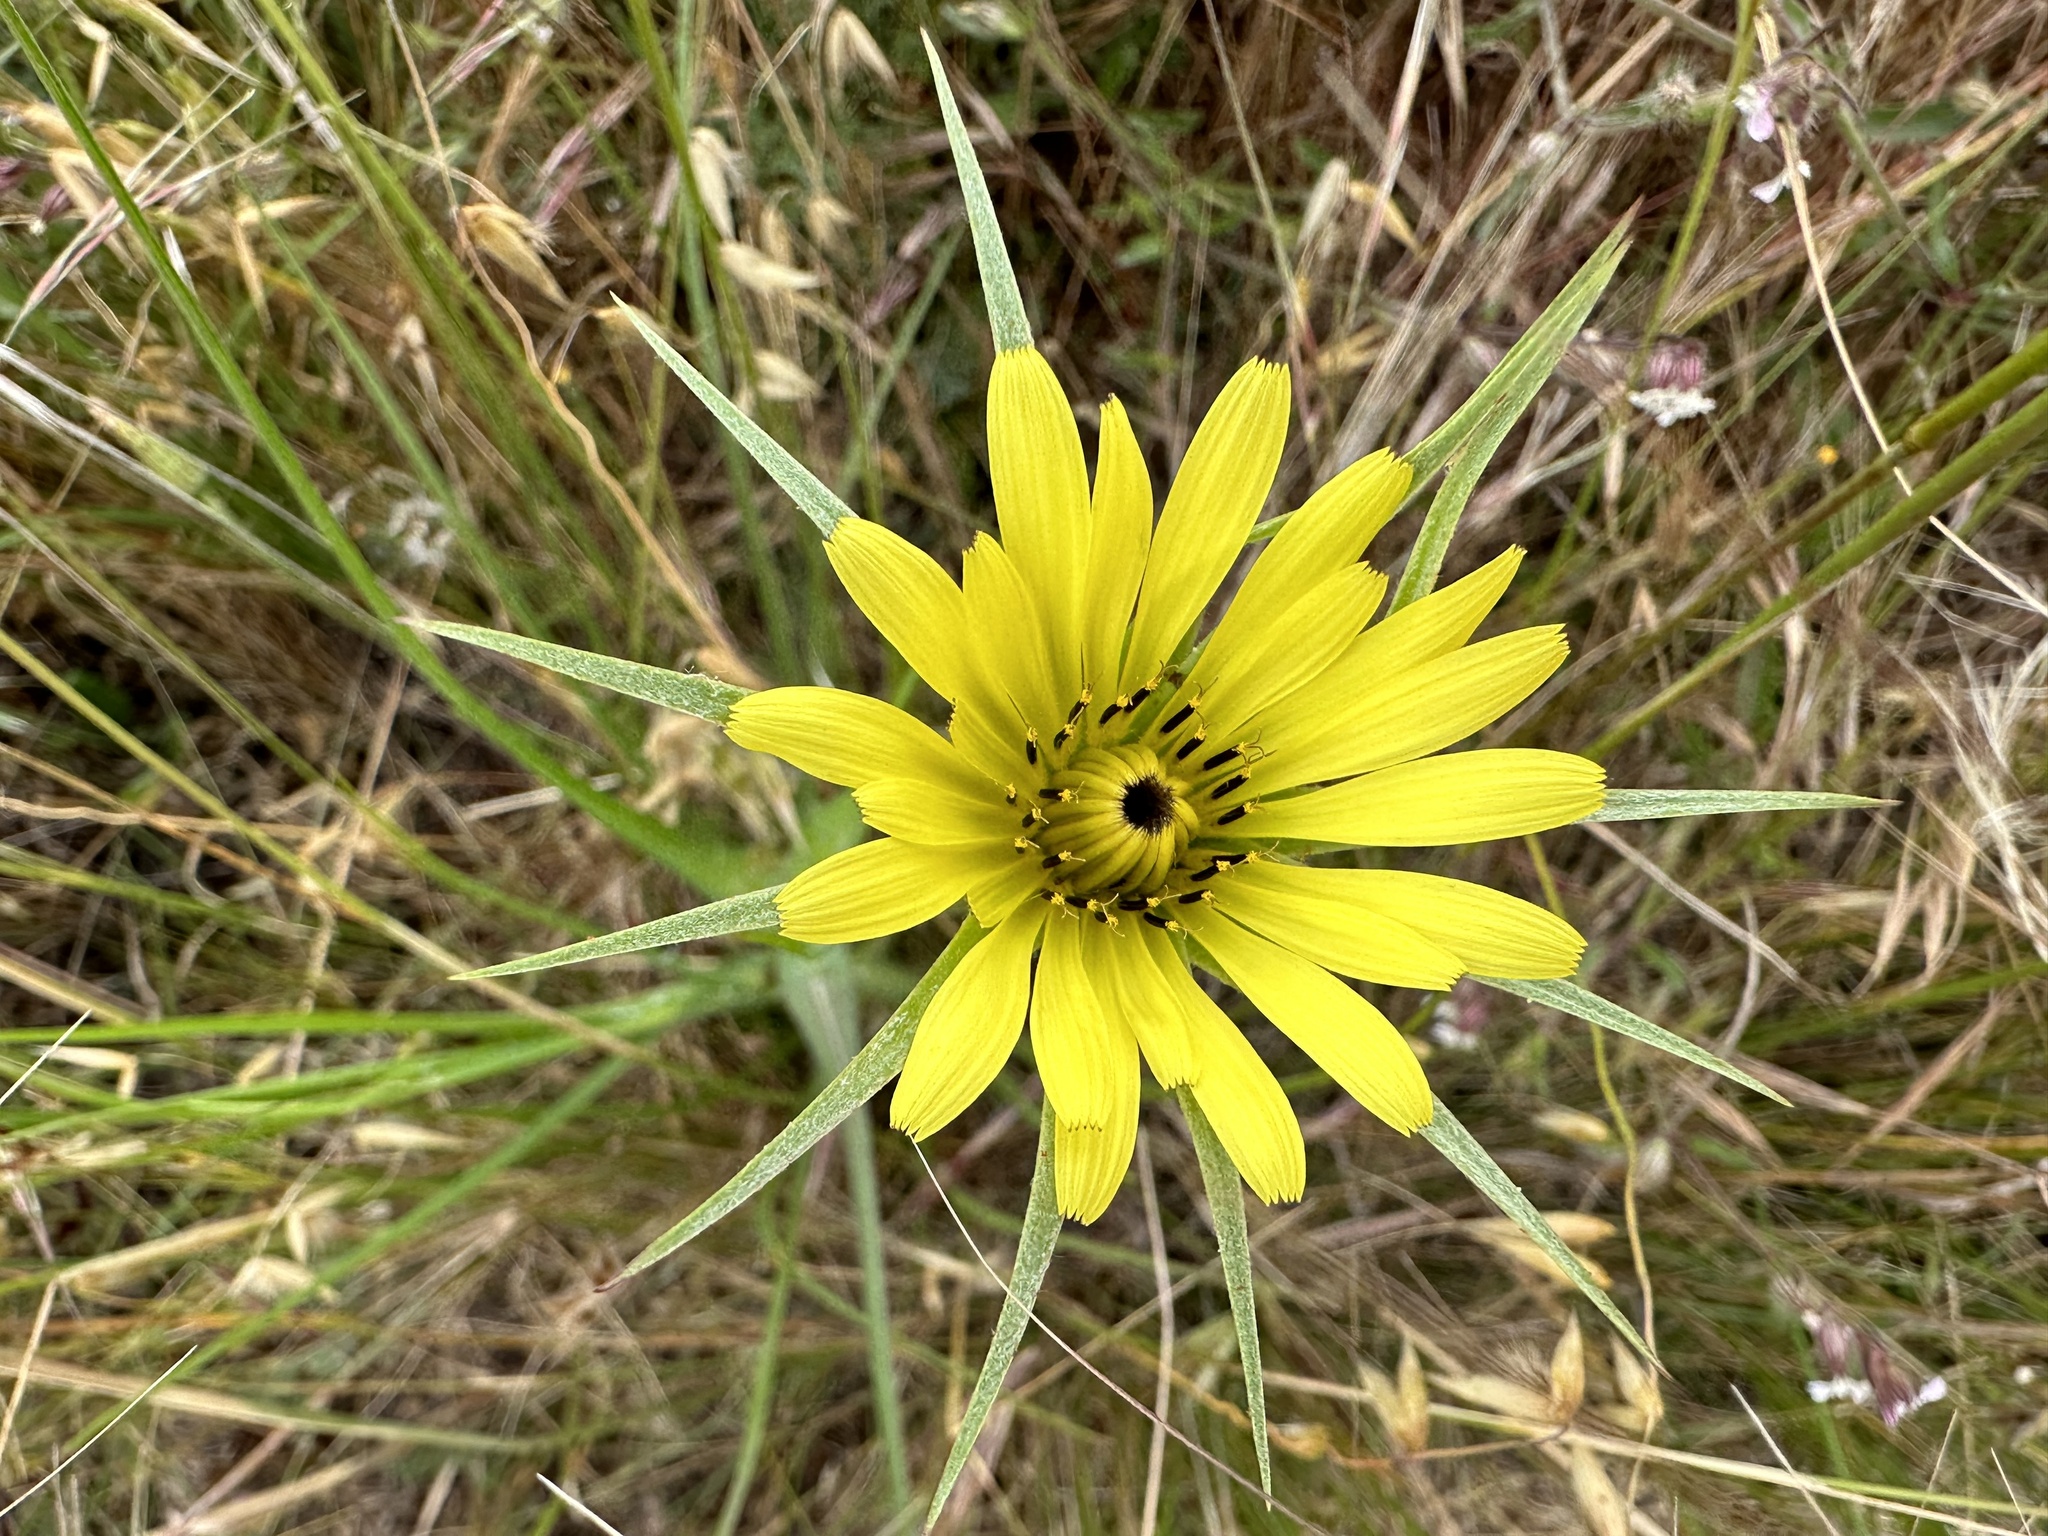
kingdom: Plantae
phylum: Tracheophyta
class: Magnoliopsida
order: Asterales
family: Asteraceae
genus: Tragopogon
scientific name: Tragopogon dubius
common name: Yellow salsify
